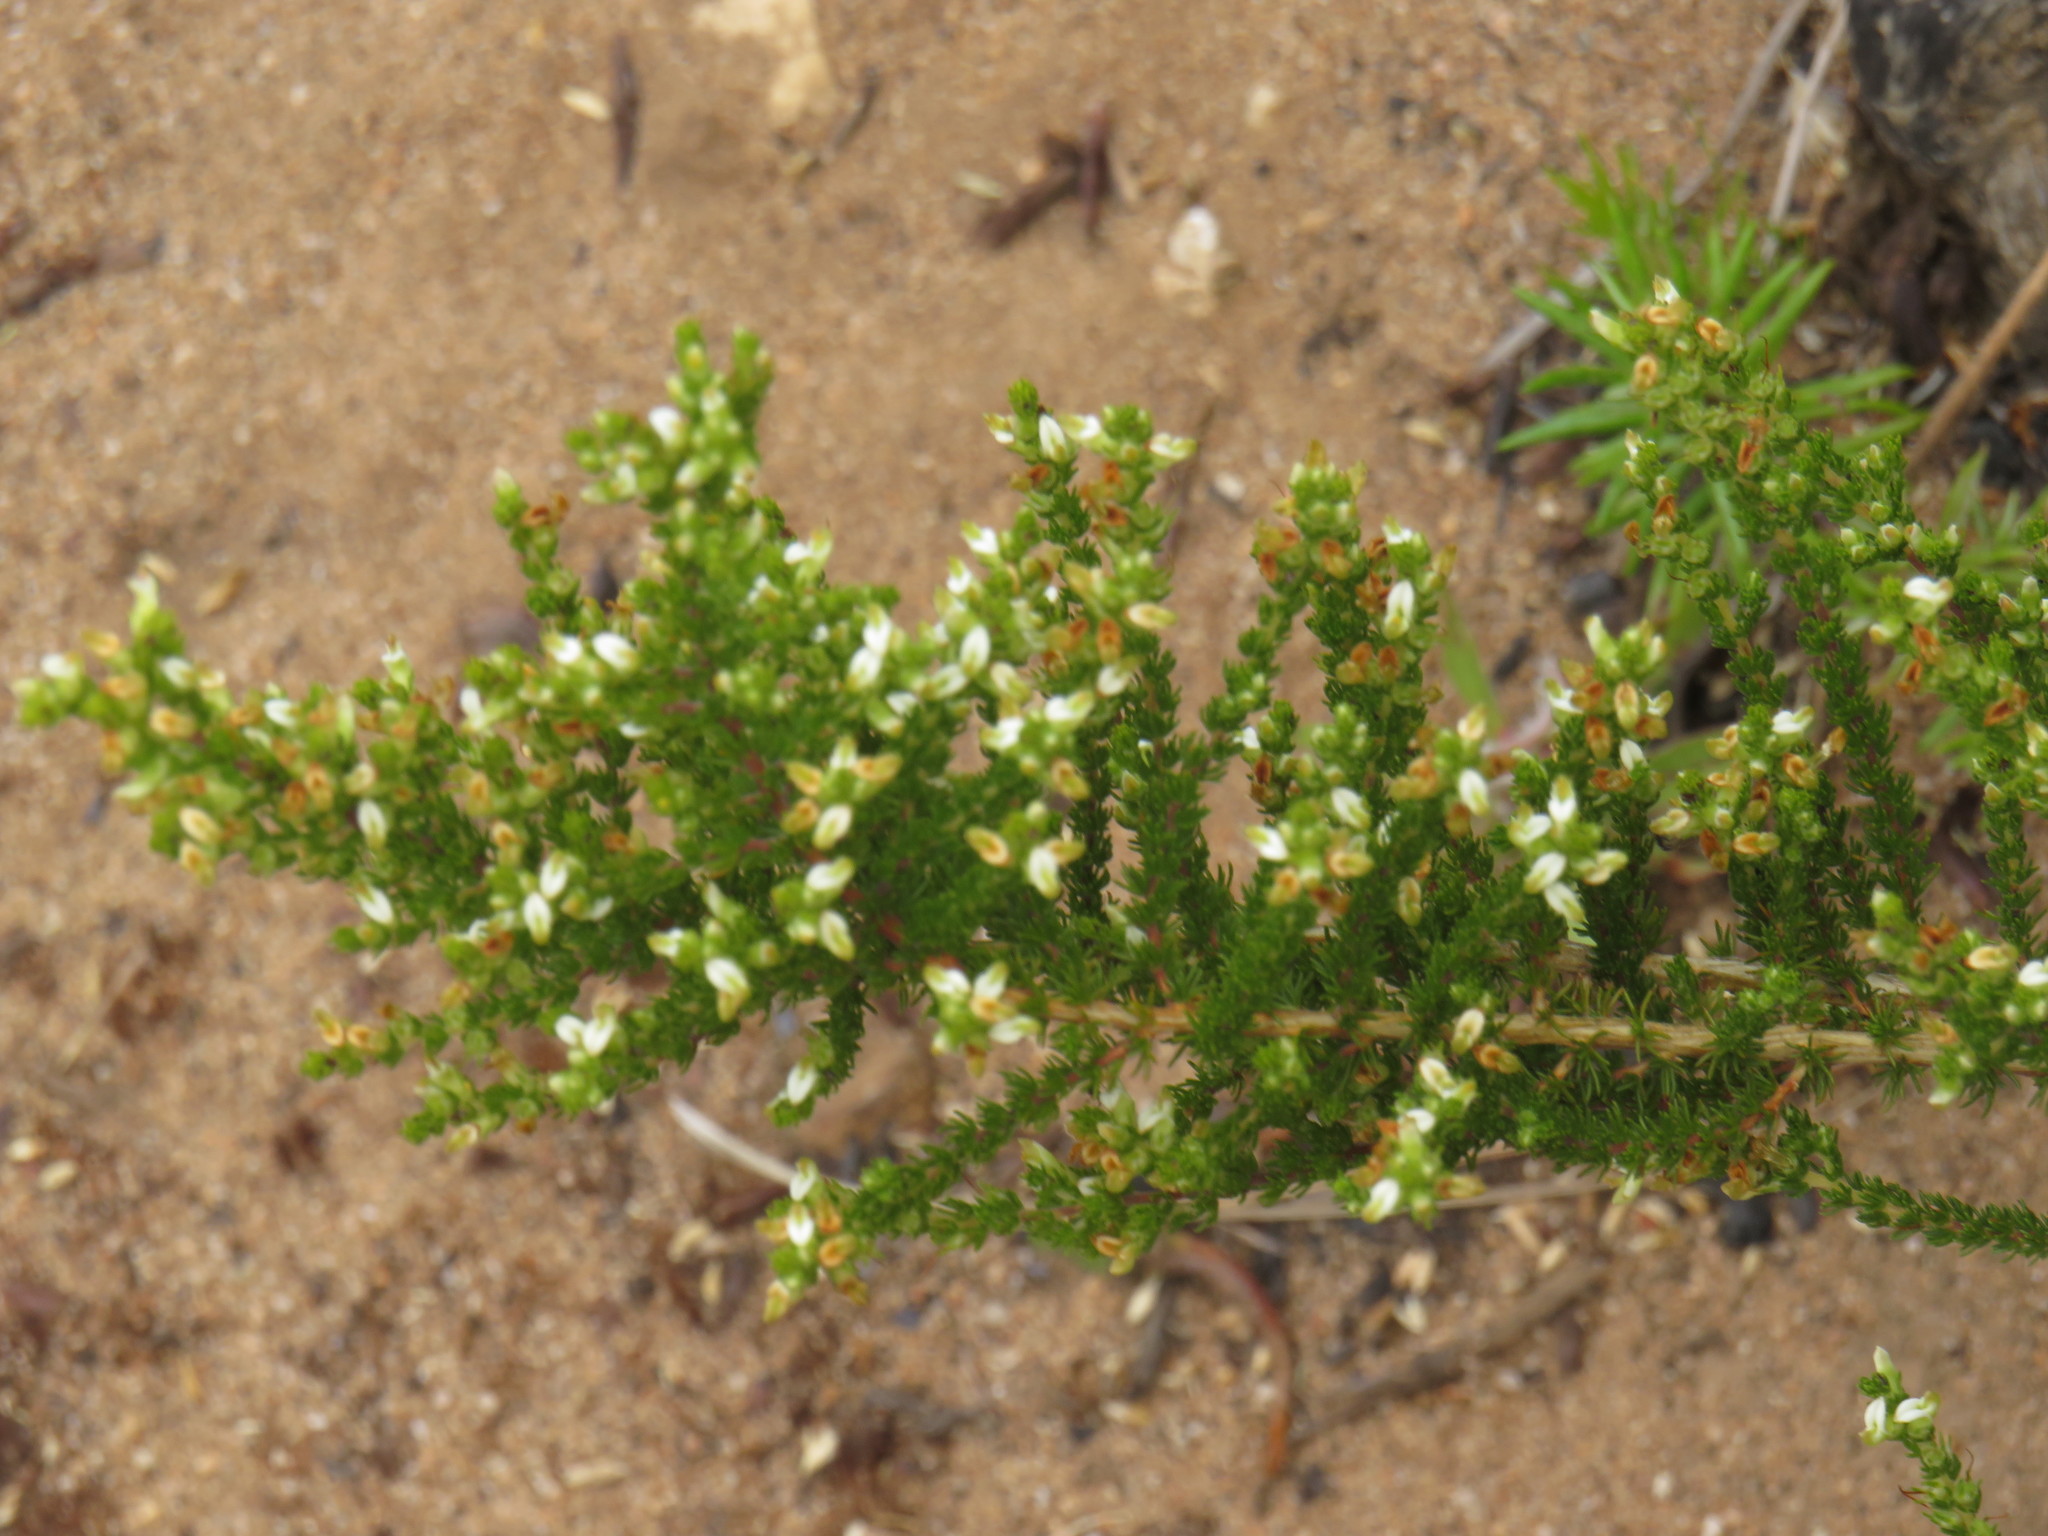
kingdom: Plantae
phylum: Tracheophyta
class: Magnoliopsida
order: Fabales
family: Fabaceae
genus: Aspalathus
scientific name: Aspalathus hispida
